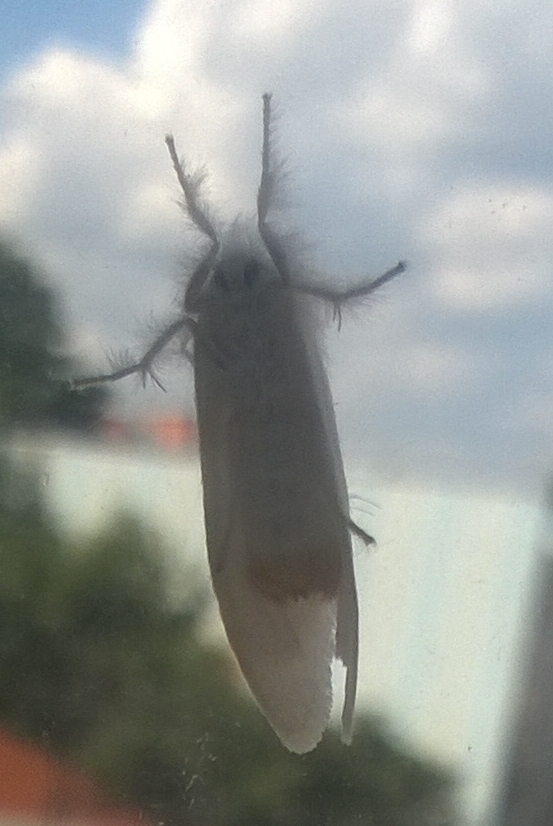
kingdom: Animalia
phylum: Arthropoda
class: Insecta
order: Lepidoptera
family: Erebidae
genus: Sphrageidus
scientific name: Sphrageidus similis
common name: Yellow-tail
